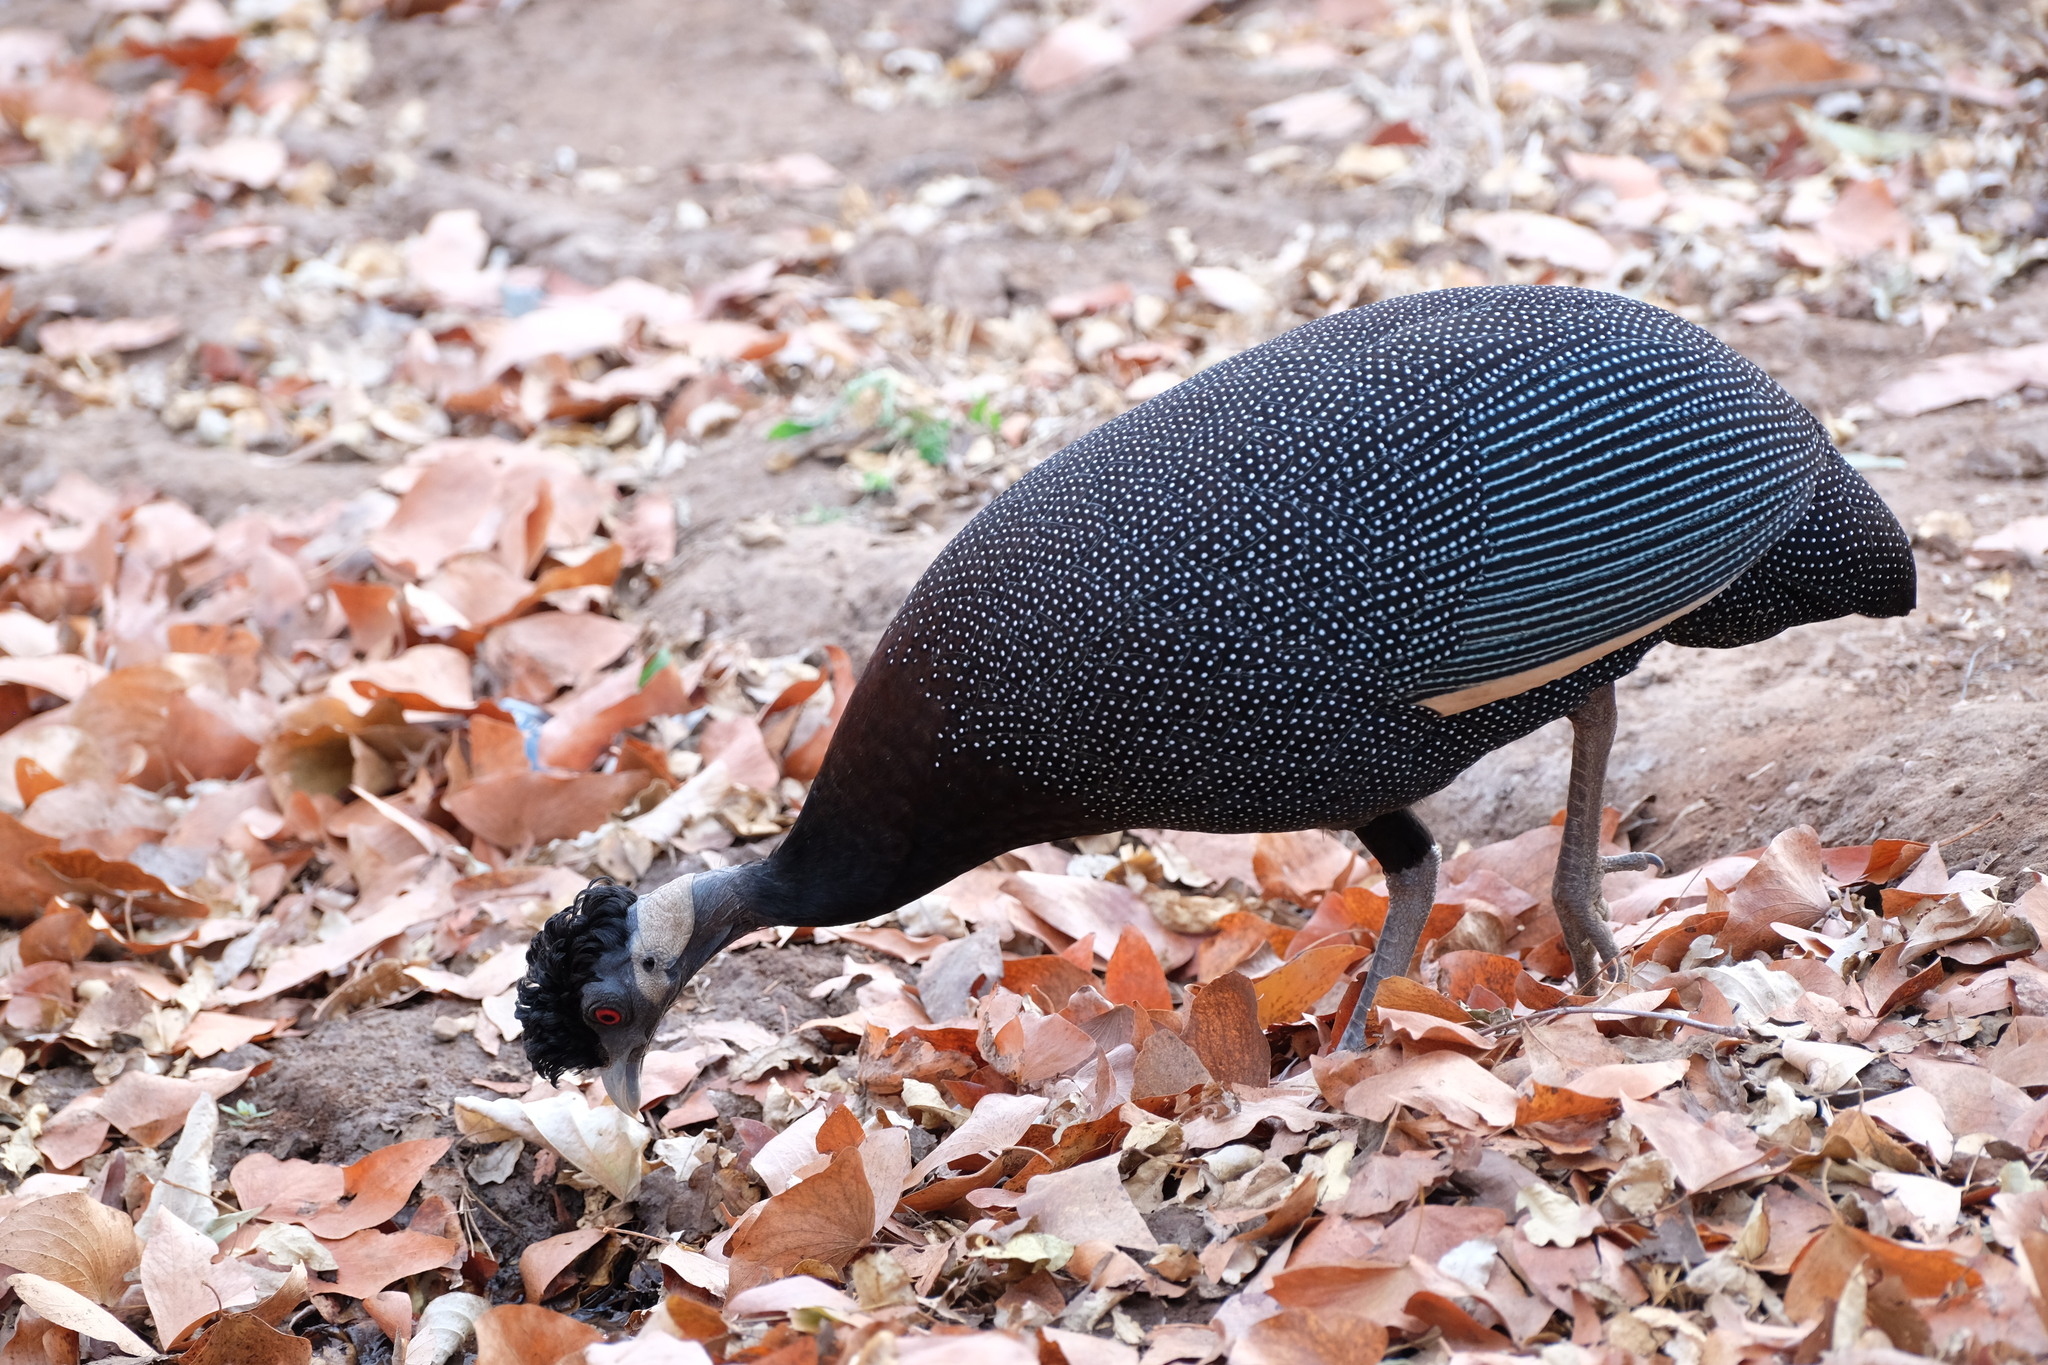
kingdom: Animalia
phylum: Chordata
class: Aves
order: Galliformes
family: Numididae
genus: Guttera
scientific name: Guttera pucherani
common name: Crested guineafowl
